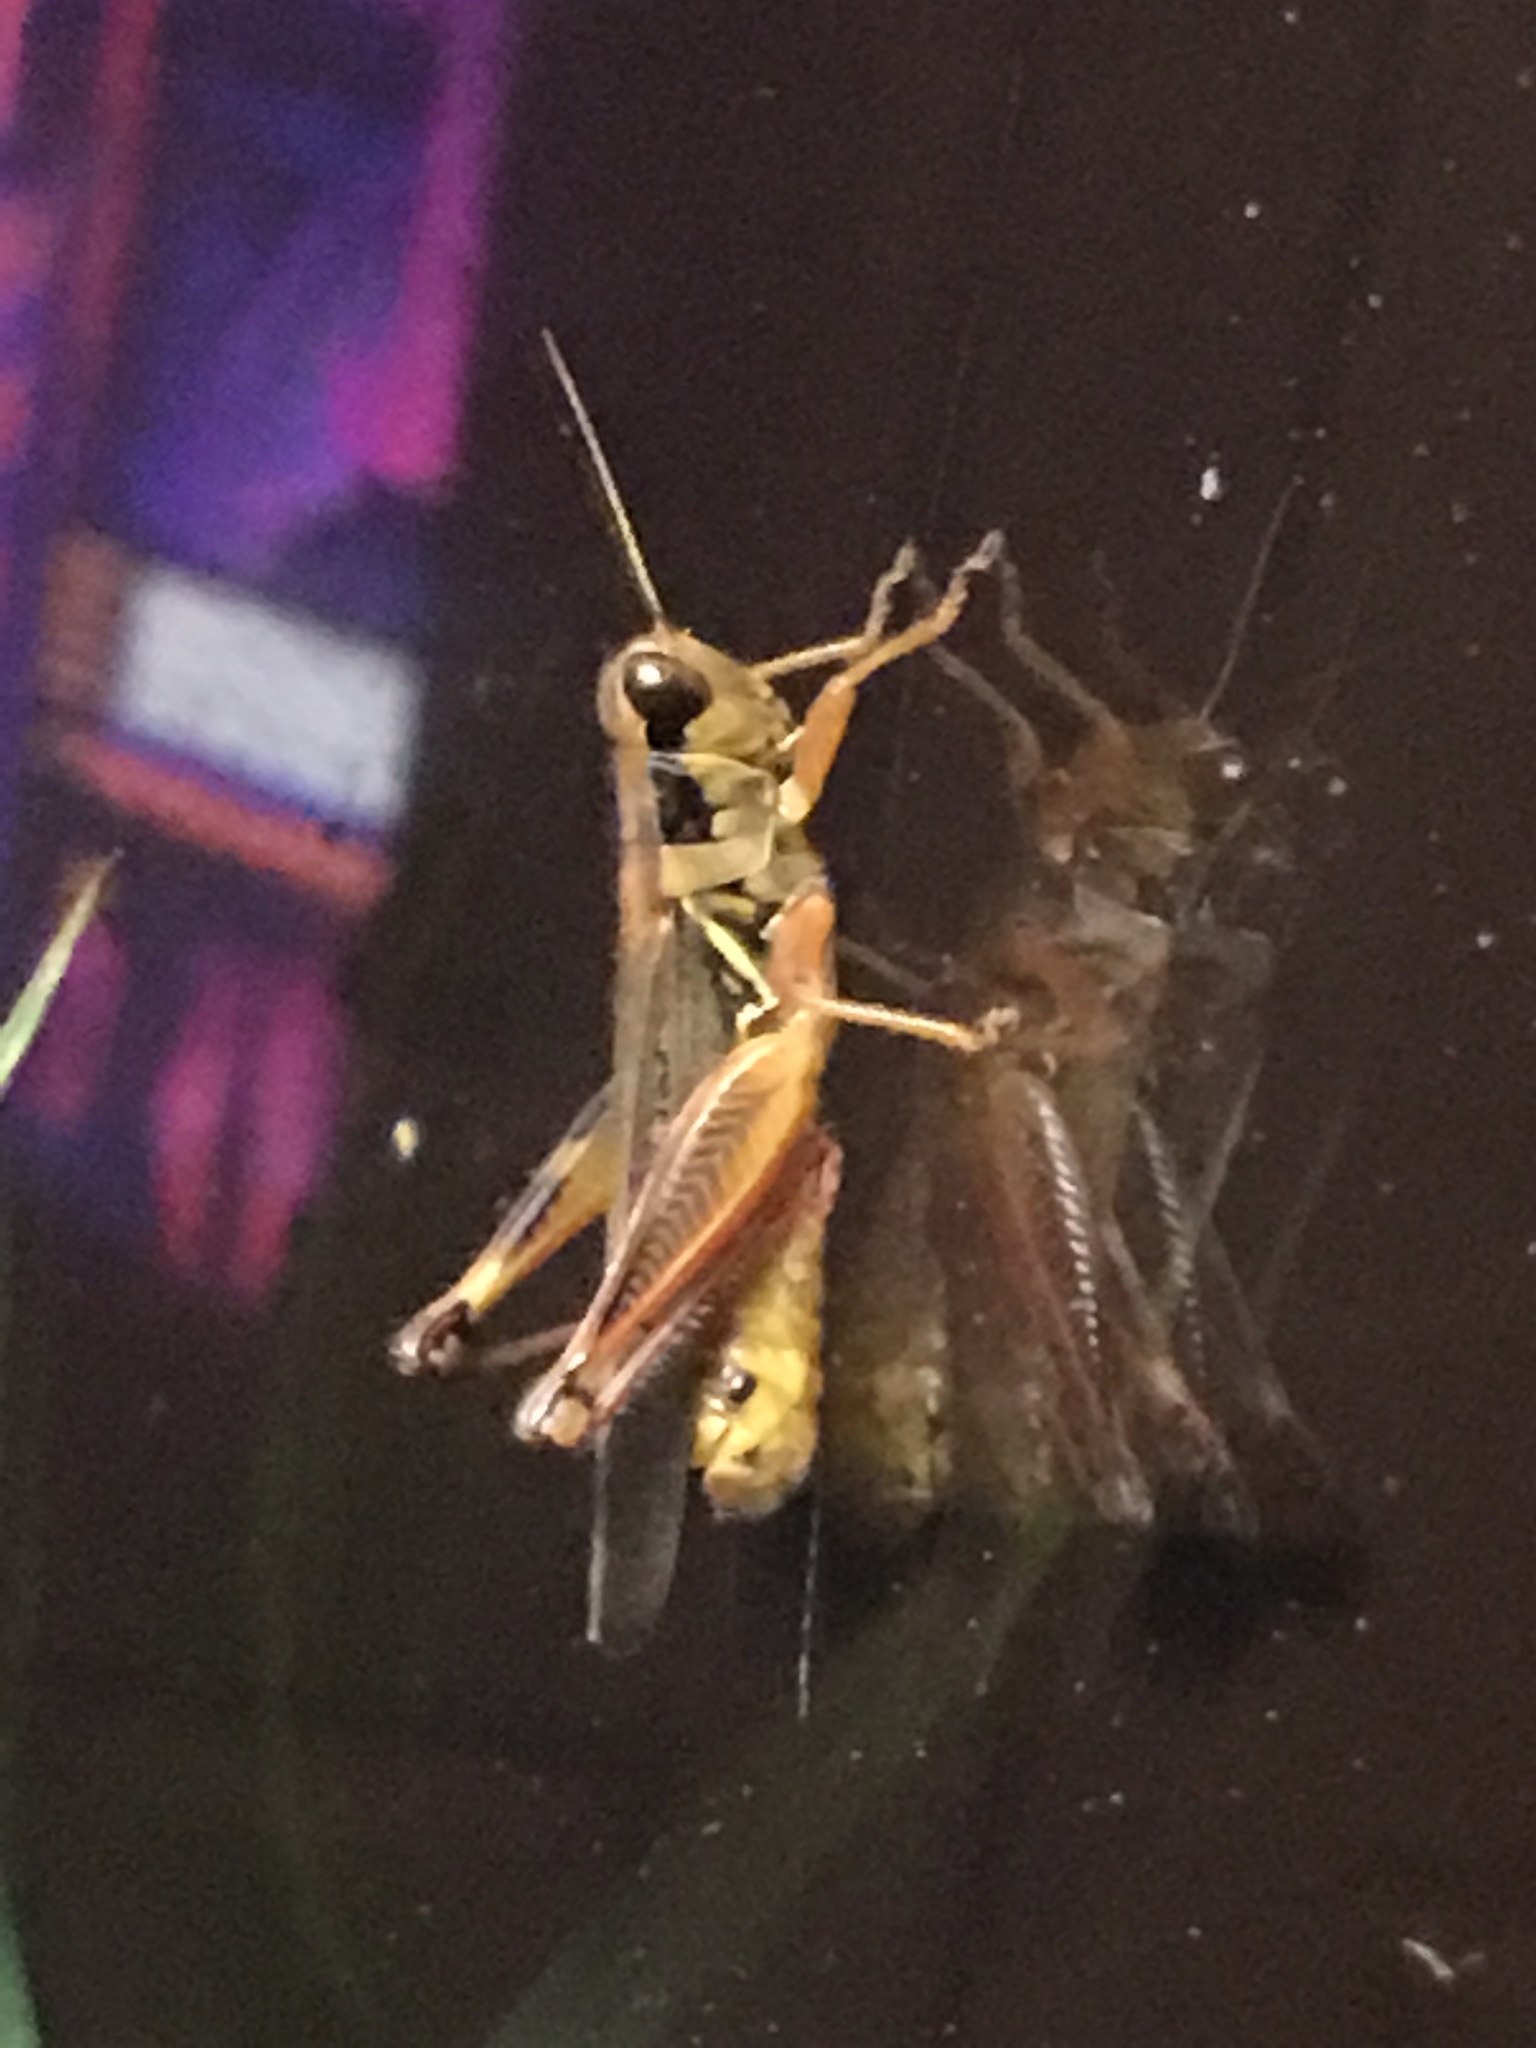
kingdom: Animalia
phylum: Arthropoda
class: Insecta
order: Orthoptera
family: Acrididae
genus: Melanoplus
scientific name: Melanoplus femurrubrum
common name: Red-legged grasshopper
